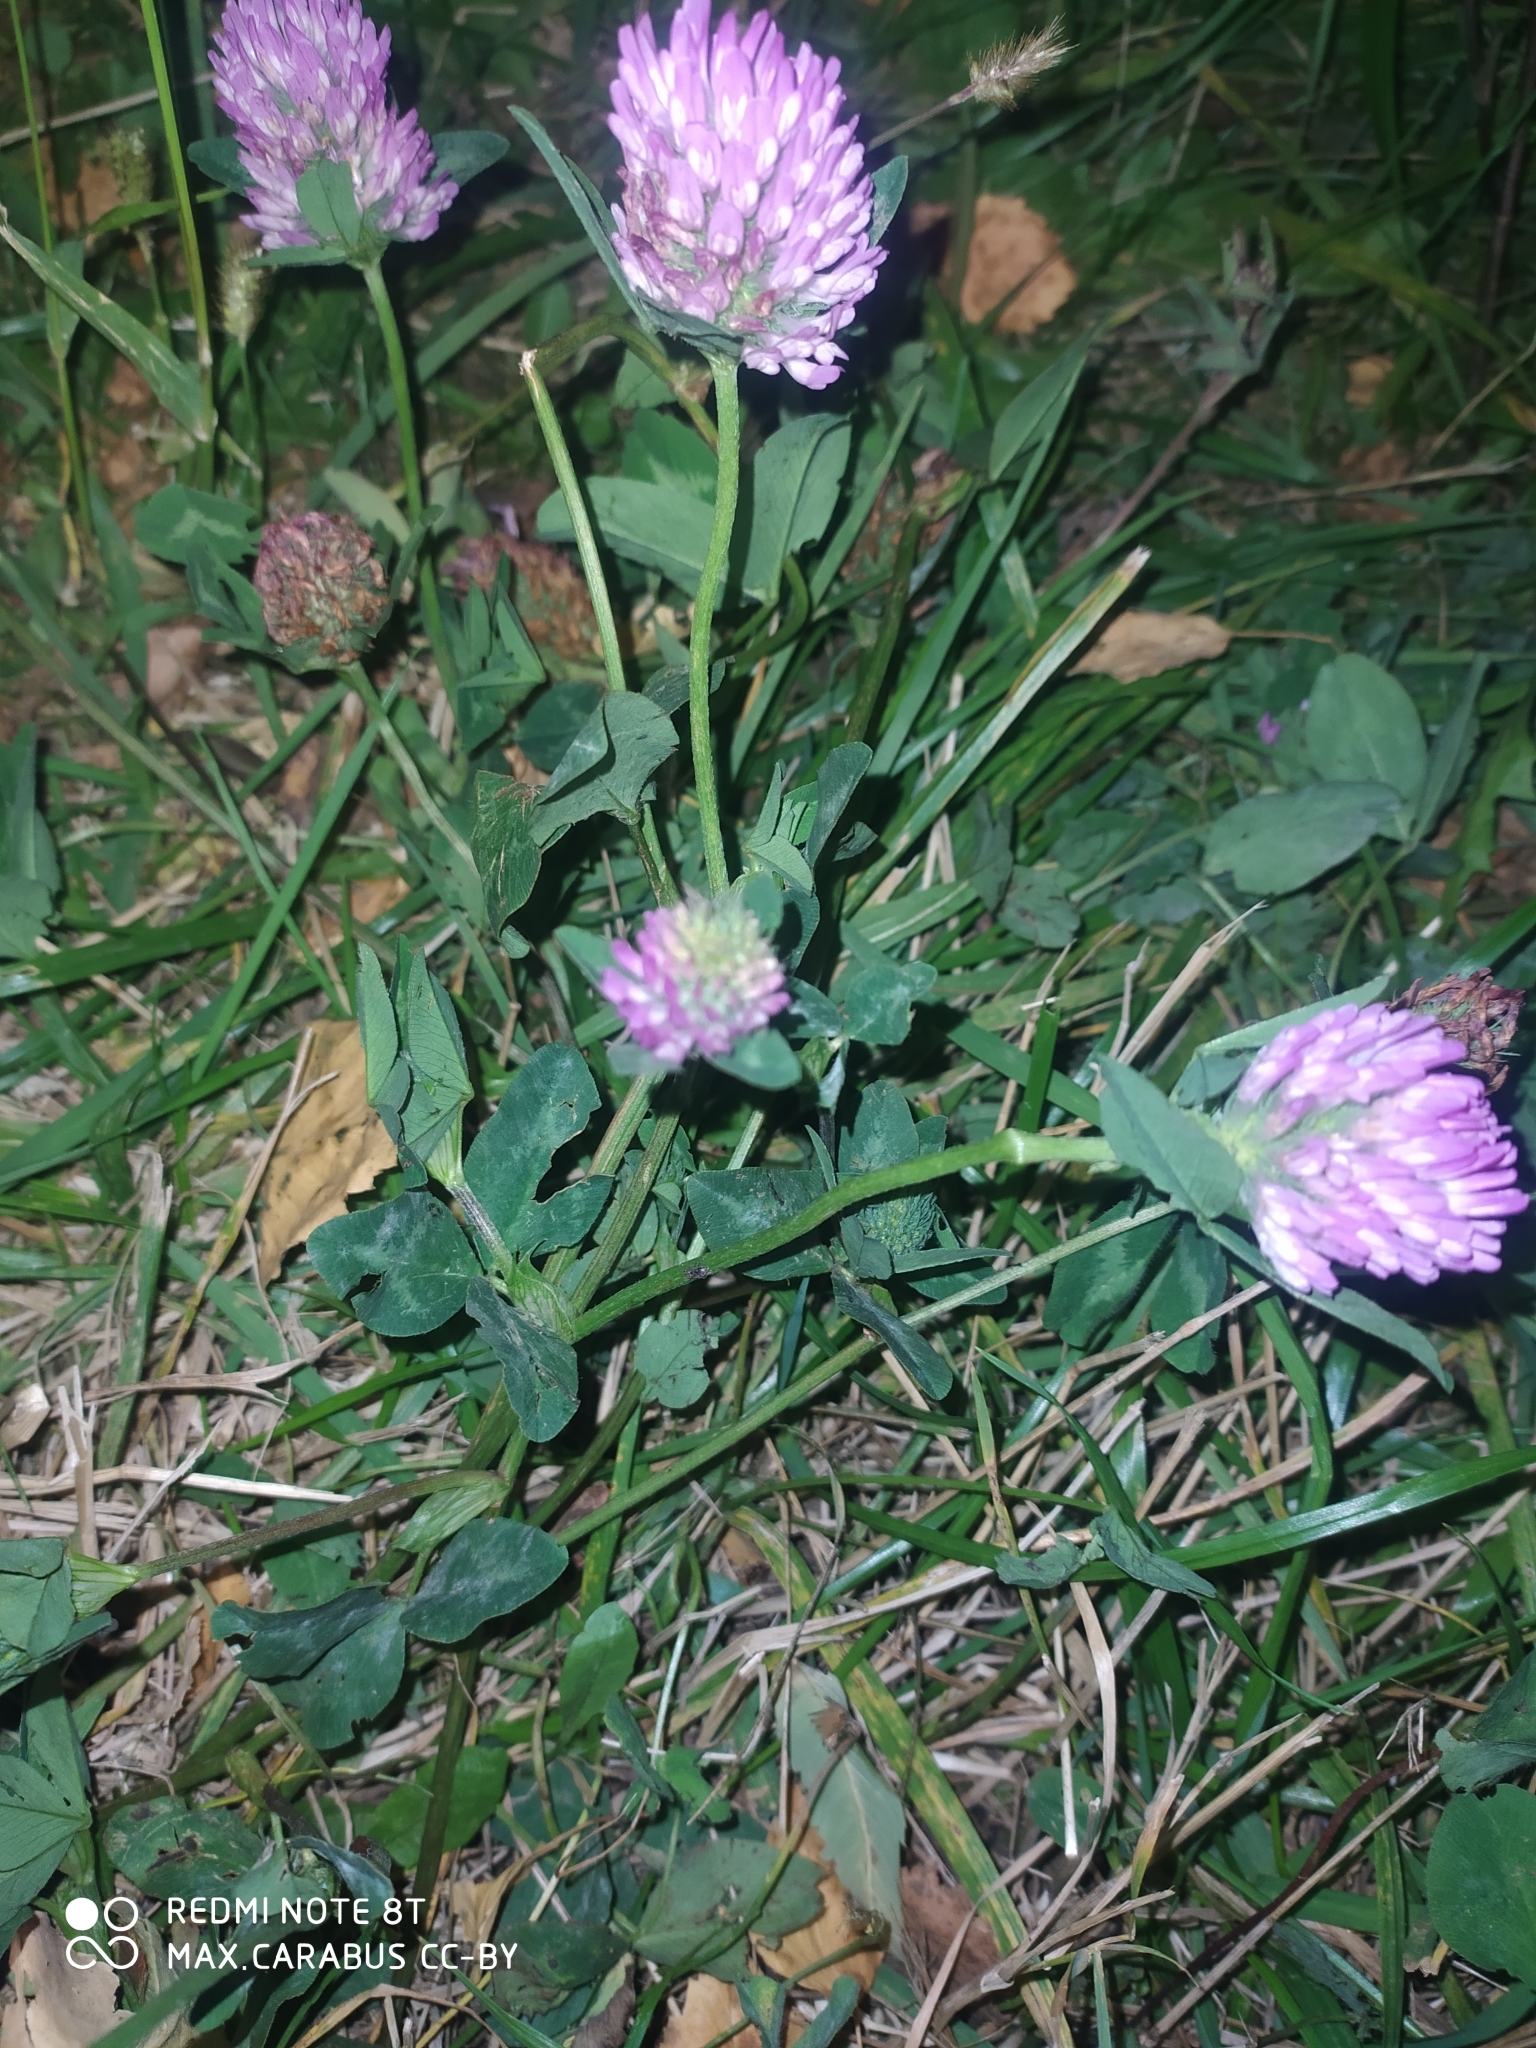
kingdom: Plantae
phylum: Tracheophyta
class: Magnoliopsida
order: Fabales
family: Fabaceae
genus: Trifolium
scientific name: Trifolium pratense
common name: Red clover
